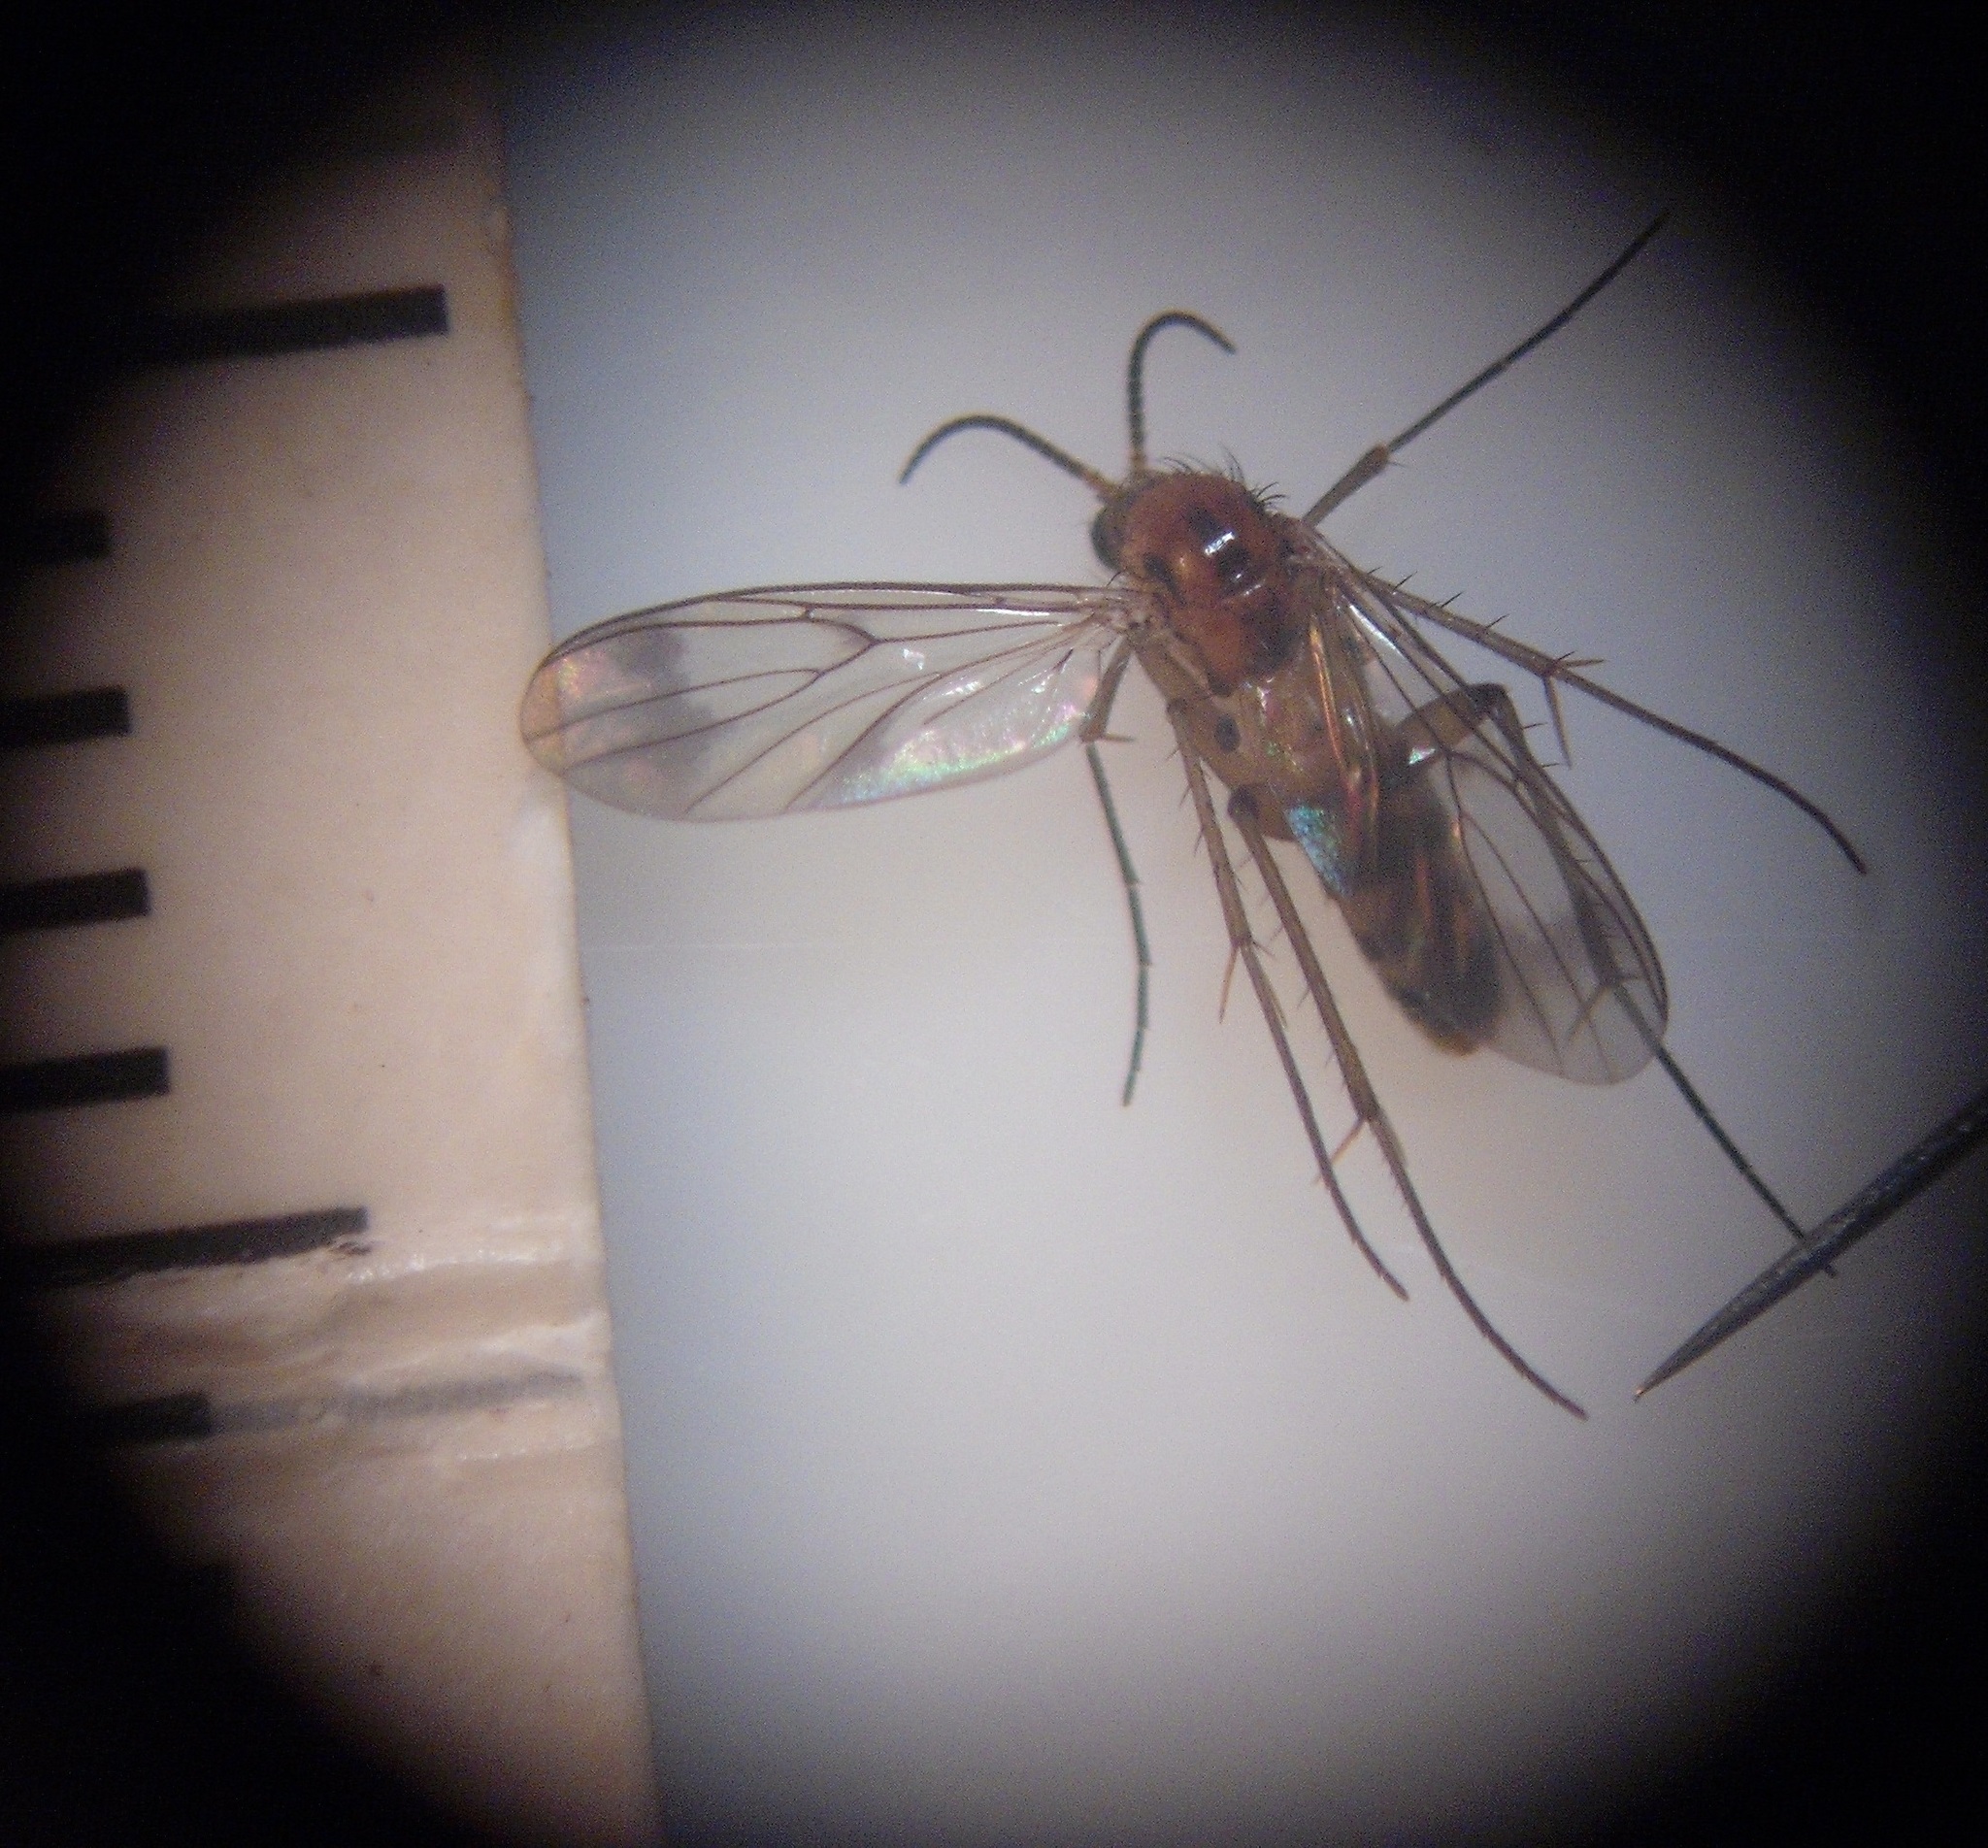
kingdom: Animalia
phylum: Arthropoda
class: Insecta
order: Diptera
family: Mycetophilidae
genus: Leia
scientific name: Leia arsona
